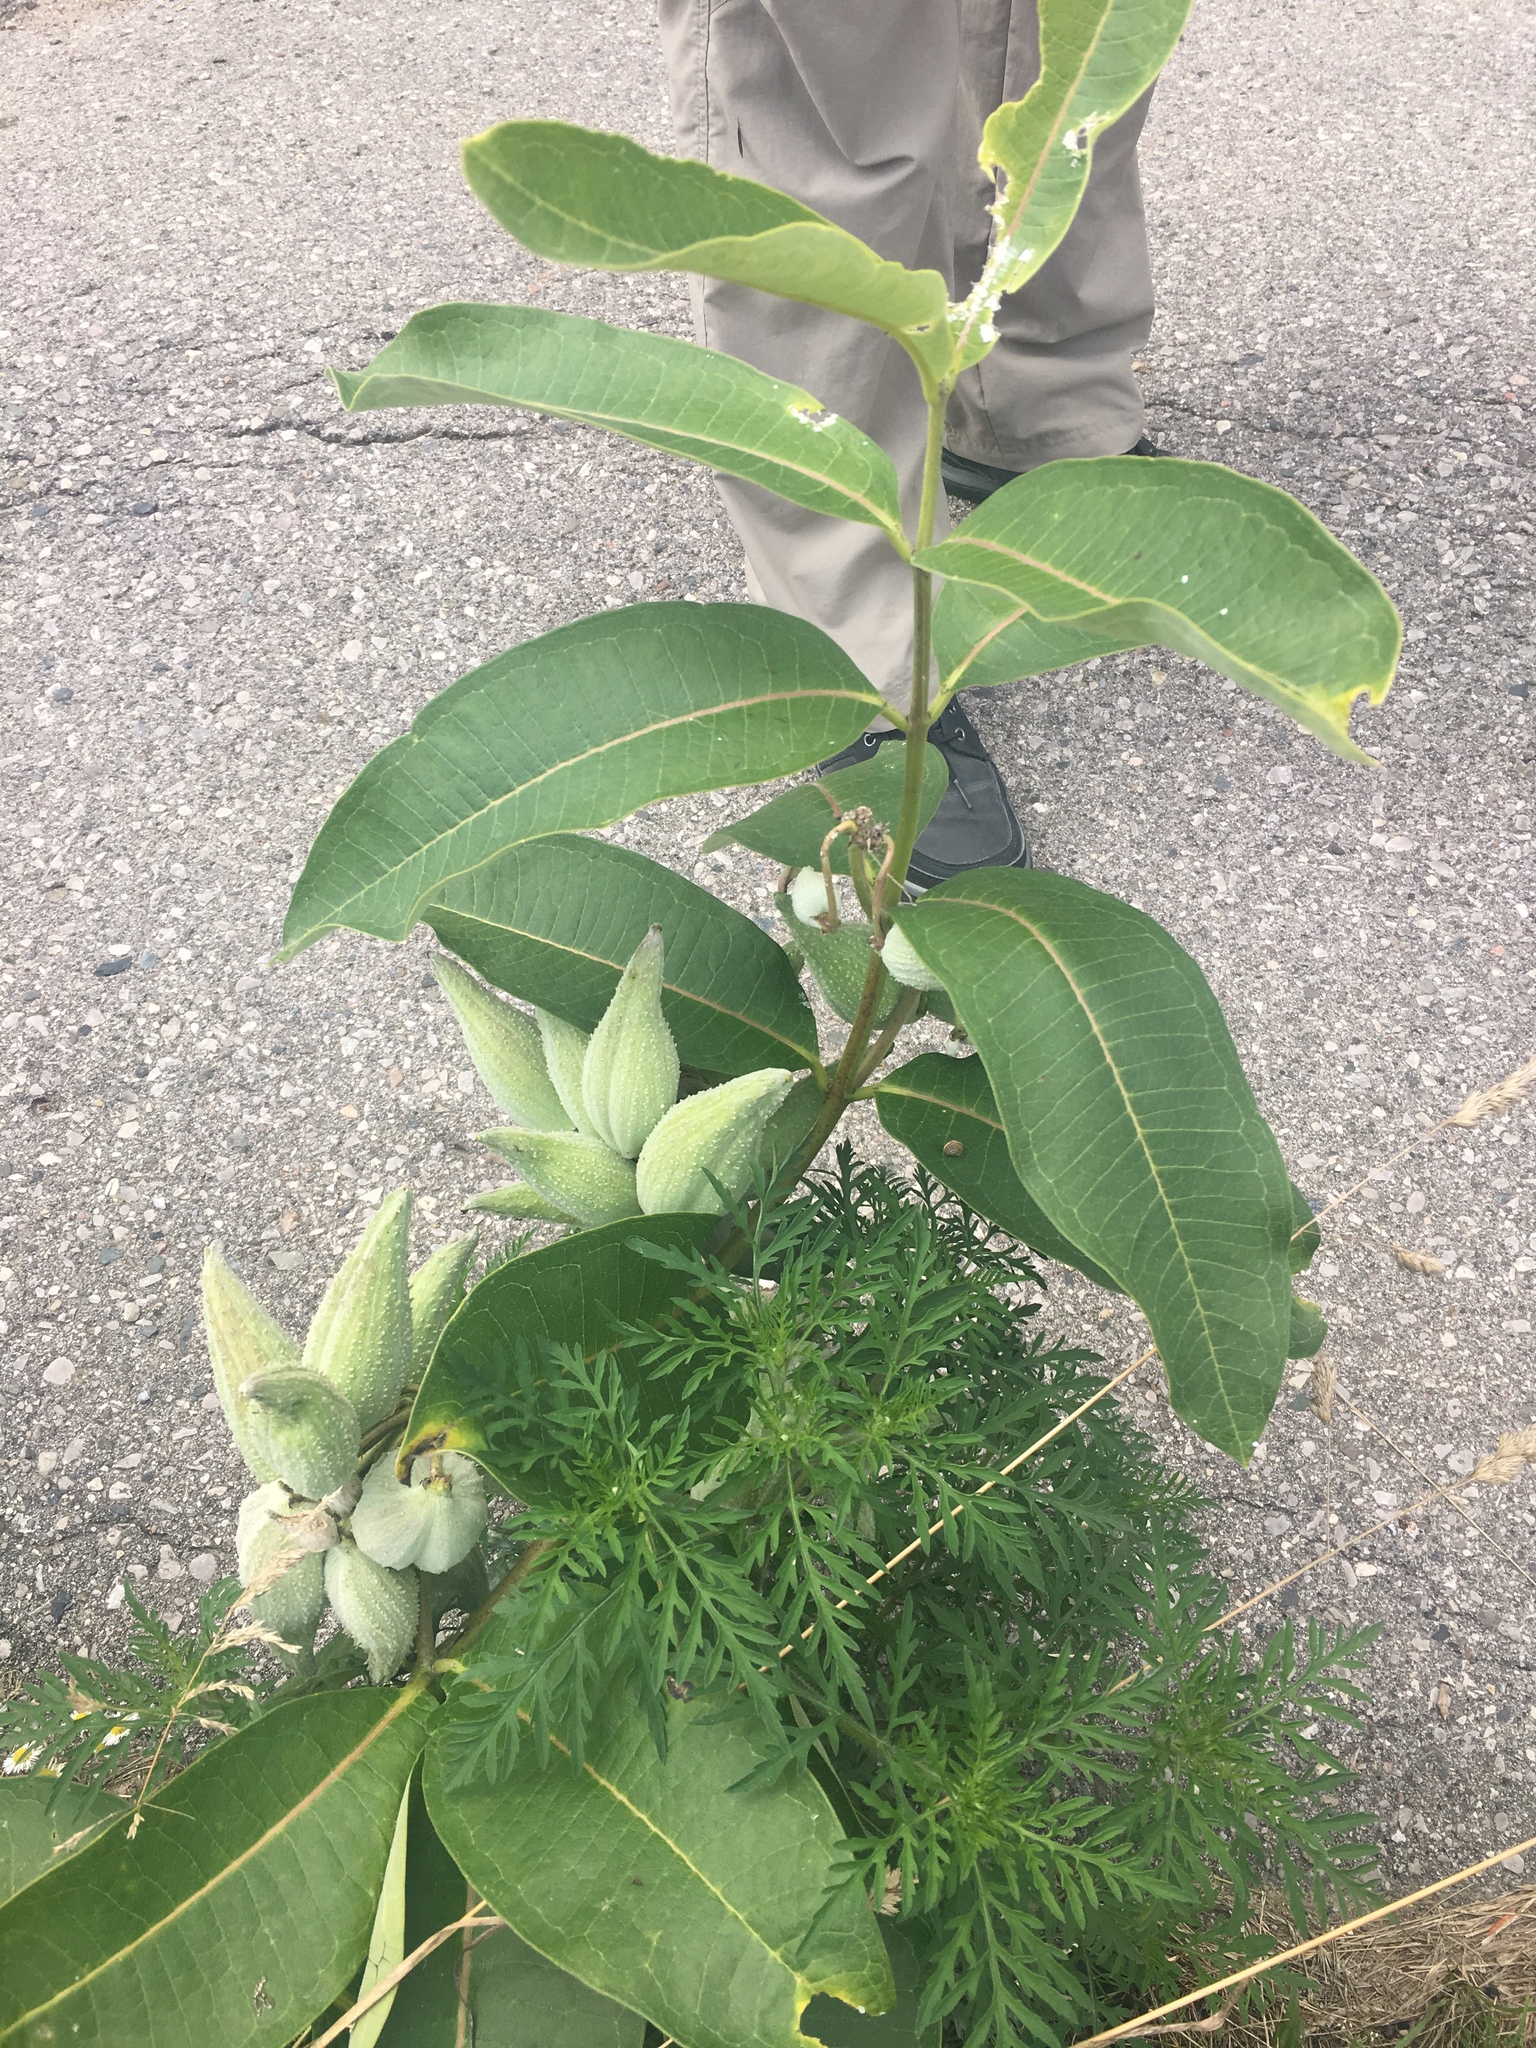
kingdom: Plantae
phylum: Tracheophyta
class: Magnoliopsida
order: Gentianales
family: Apocynaceae
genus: Asclepias
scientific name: Asclepias syriaca
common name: Common milkweed
